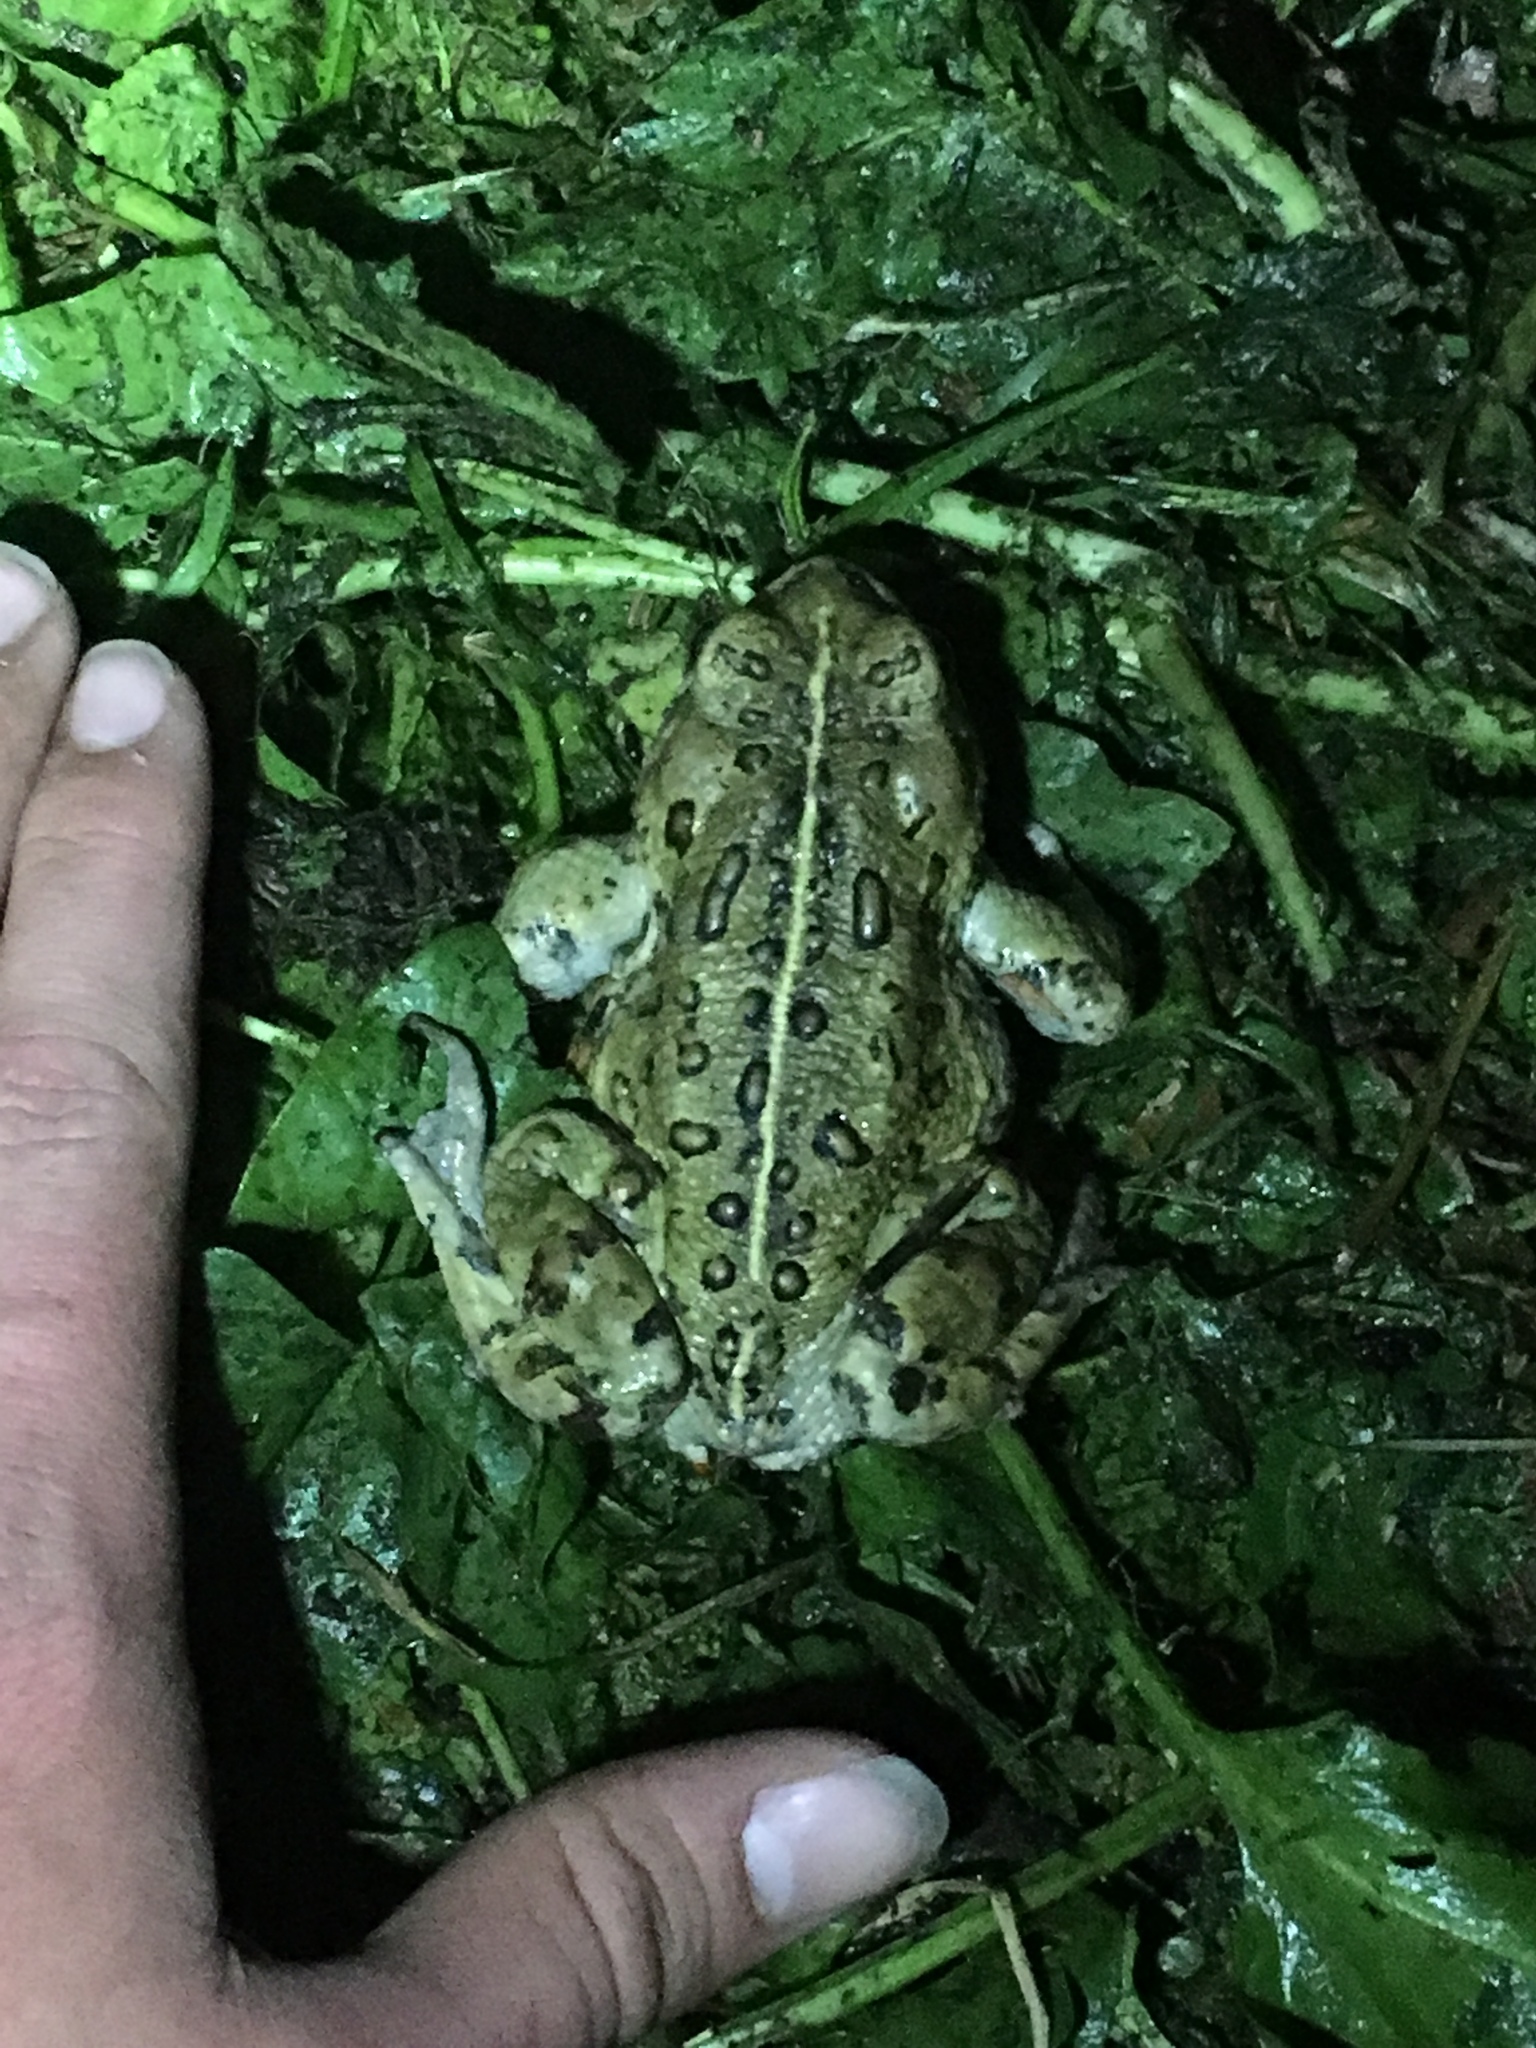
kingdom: Animalia
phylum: Chordata
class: Amphibia
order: Anura
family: Bufonidae
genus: Anaxyrus
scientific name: Anaxyrus boreas
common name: Western toad
